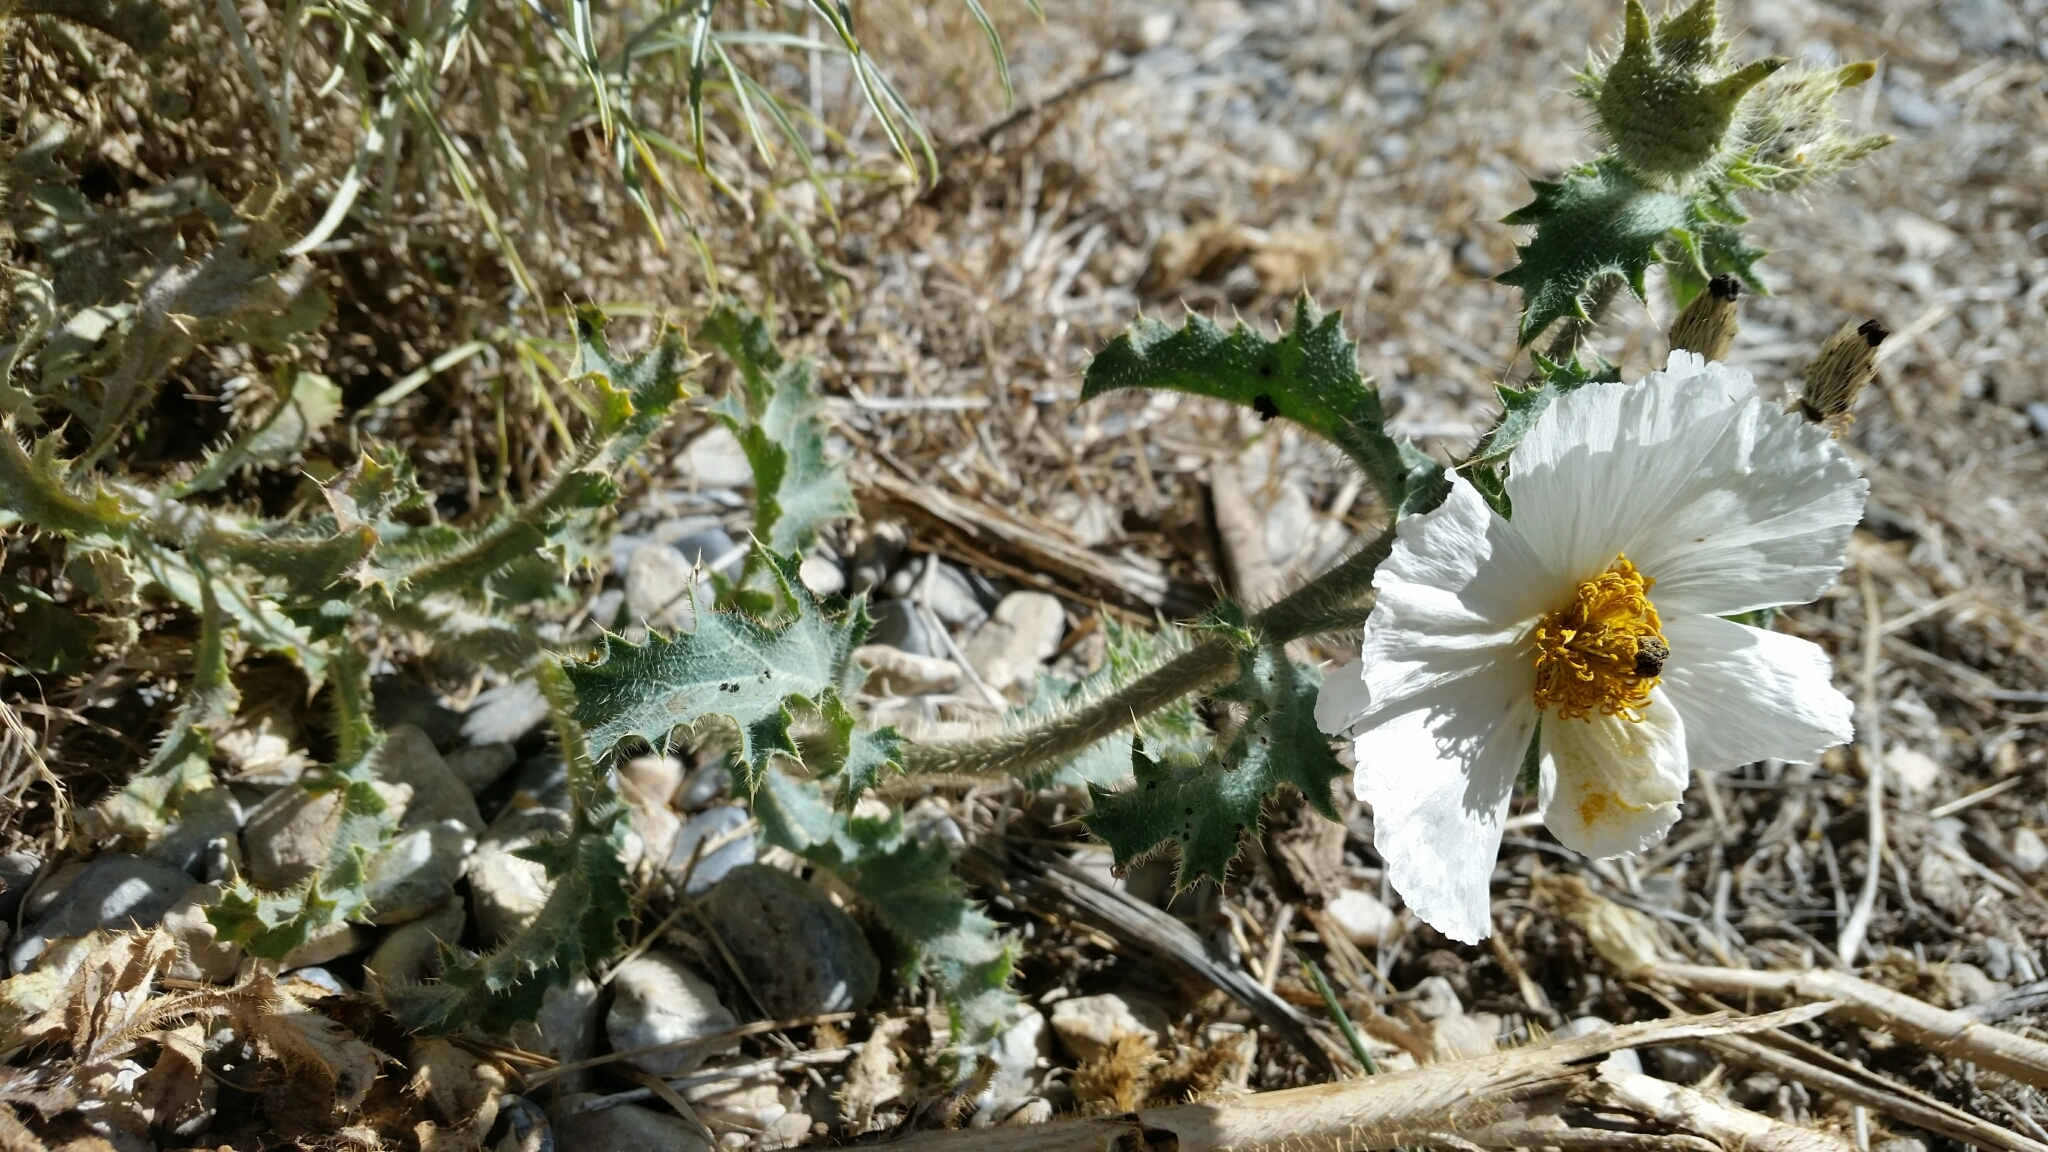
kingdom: Plantae
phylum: Tracheophyta
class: Magnoliopsida
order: Ranunculales
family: Papaveraceae
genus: Argemone
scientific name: Argemone munita
